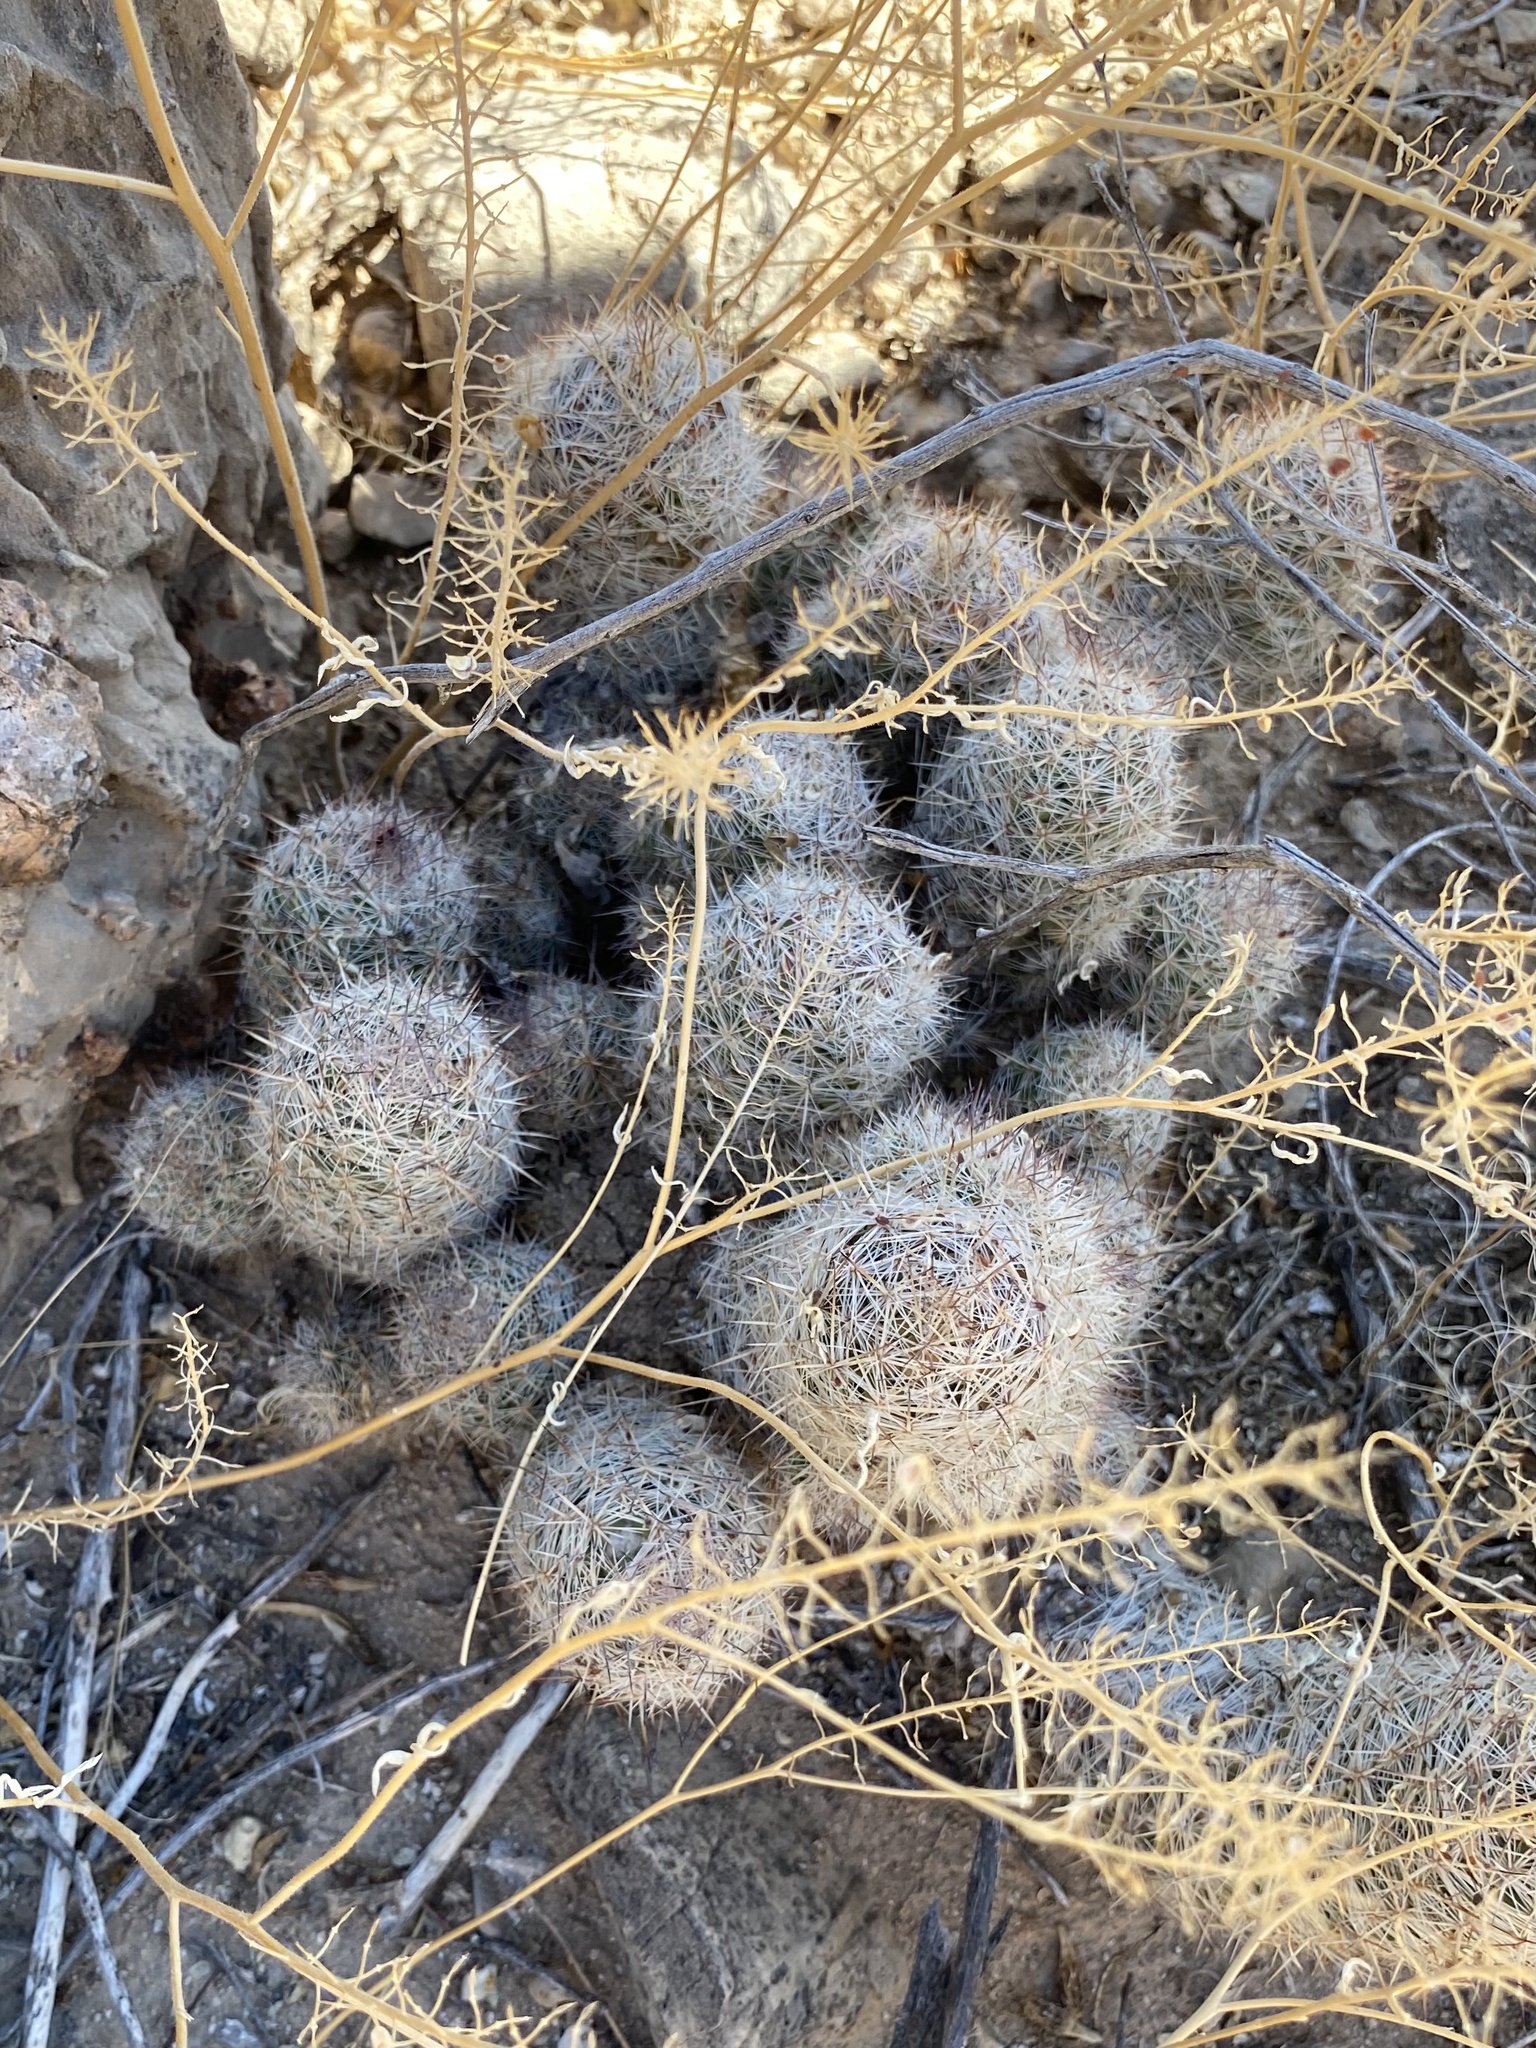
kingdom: Plantae
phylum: Tracheophyta
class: Magnoliopsida
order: Caryophyllales
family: Cactaceae
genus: Pelecyphora
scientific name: Pelecyphora tuberculosa
